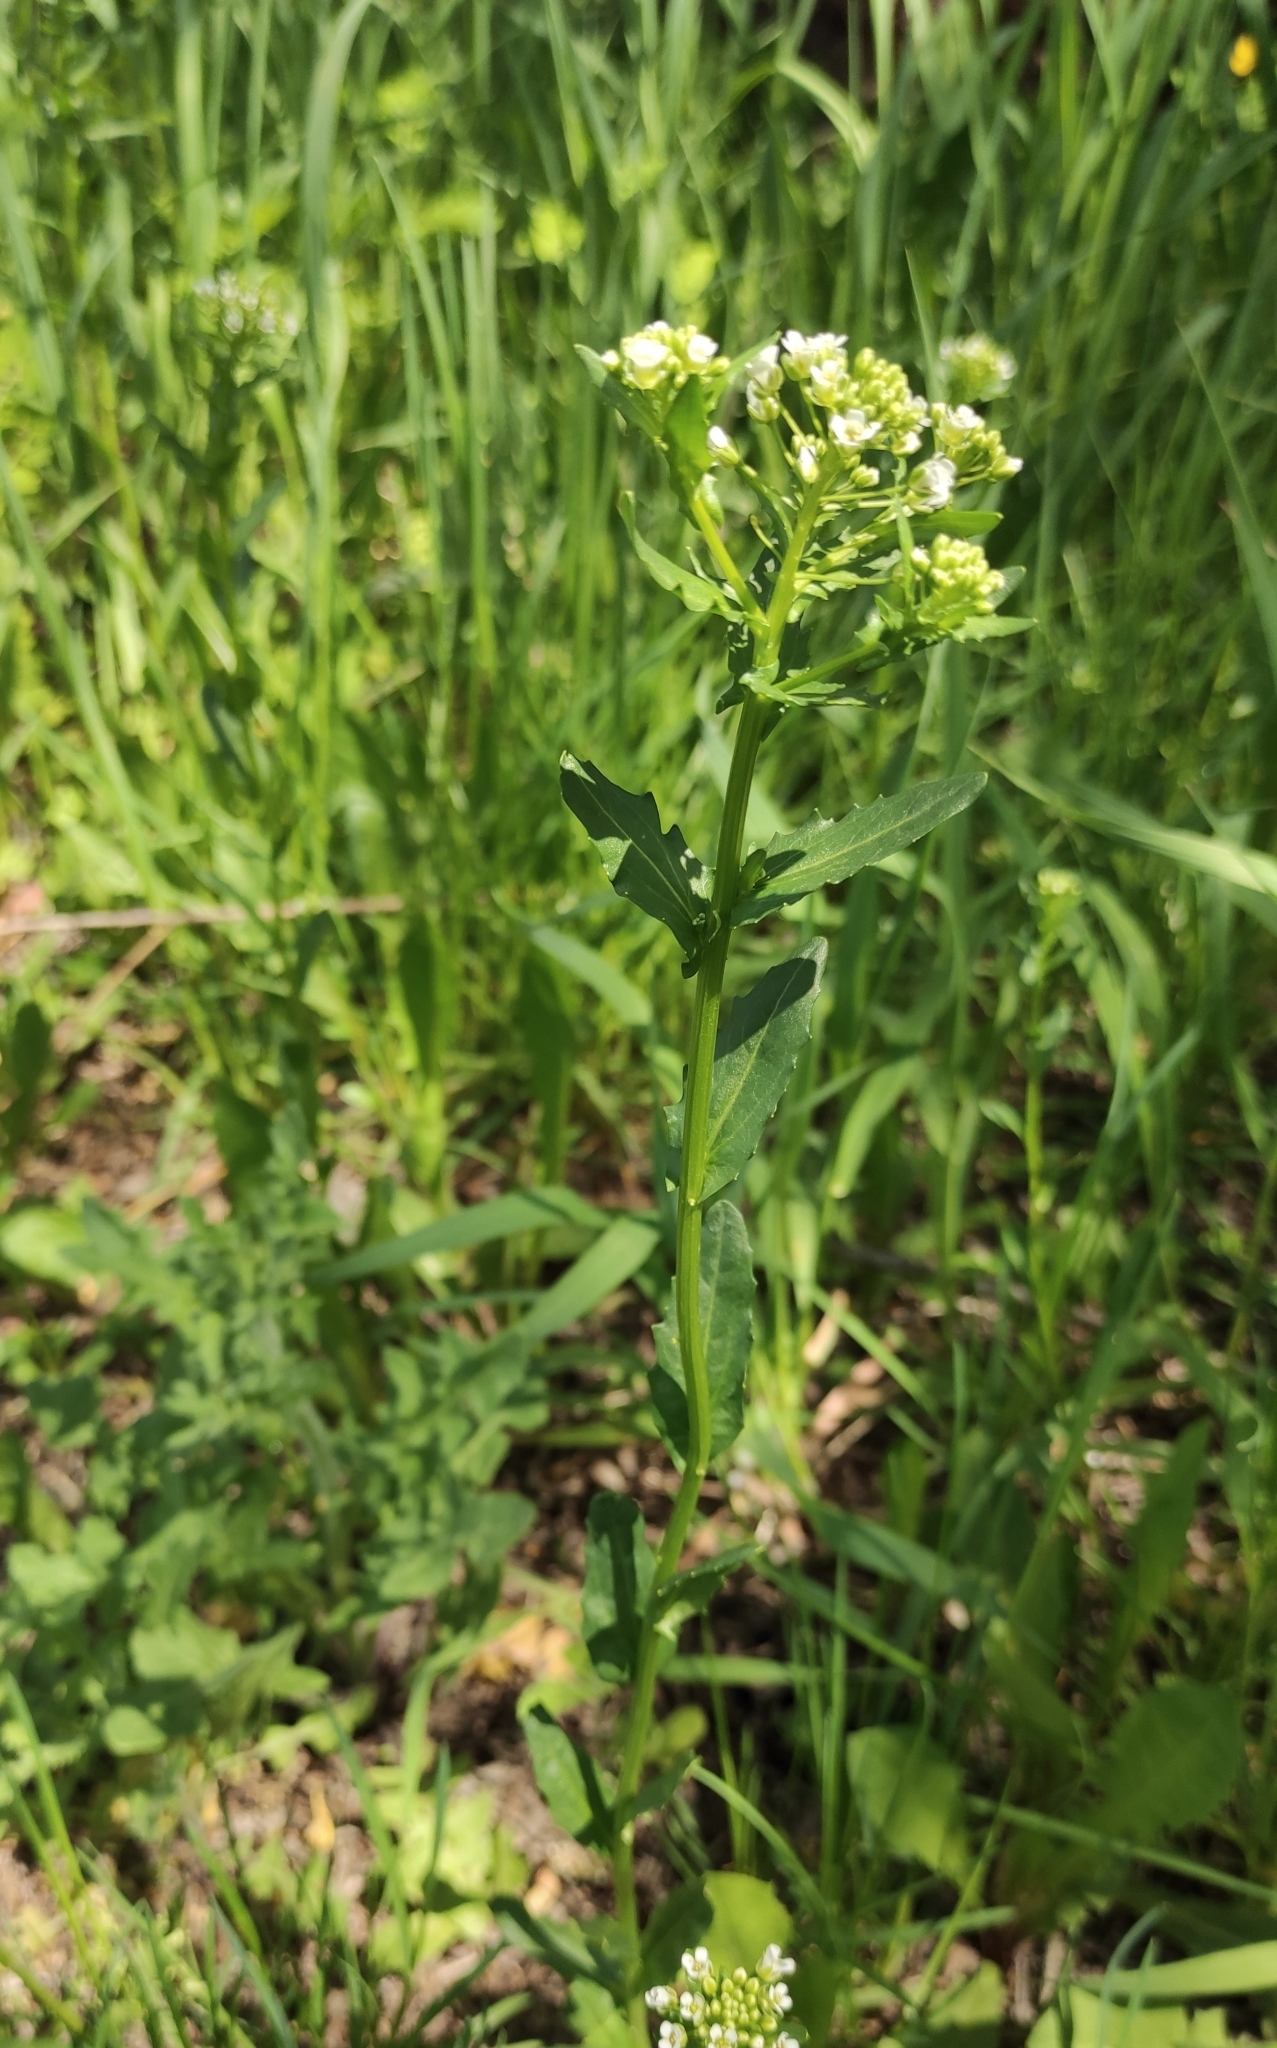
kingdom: Plantae
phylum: Tracheophyta
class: Magnoliopsida
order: Brassicales
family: Brassicaceae
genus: Thlaspi
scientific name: Thlaspi arvense
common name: Field pennycress
